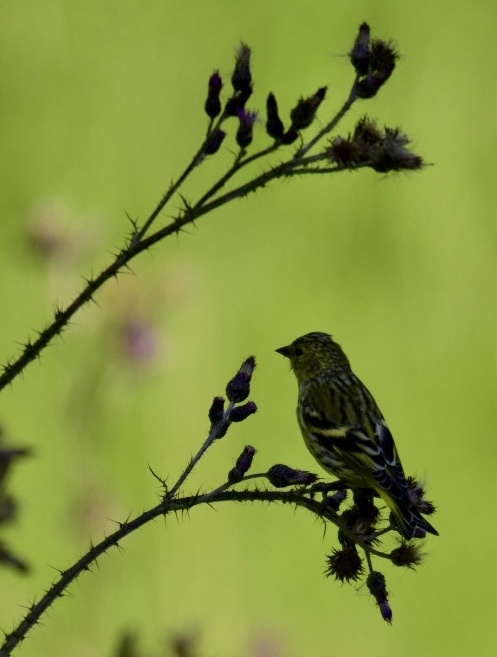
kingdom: Animalia
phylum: Chordata
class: Aves
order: Passeriformes
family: Fringillidae
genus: Spinus
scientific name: Spinus spinus
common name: Eurasian siskin
